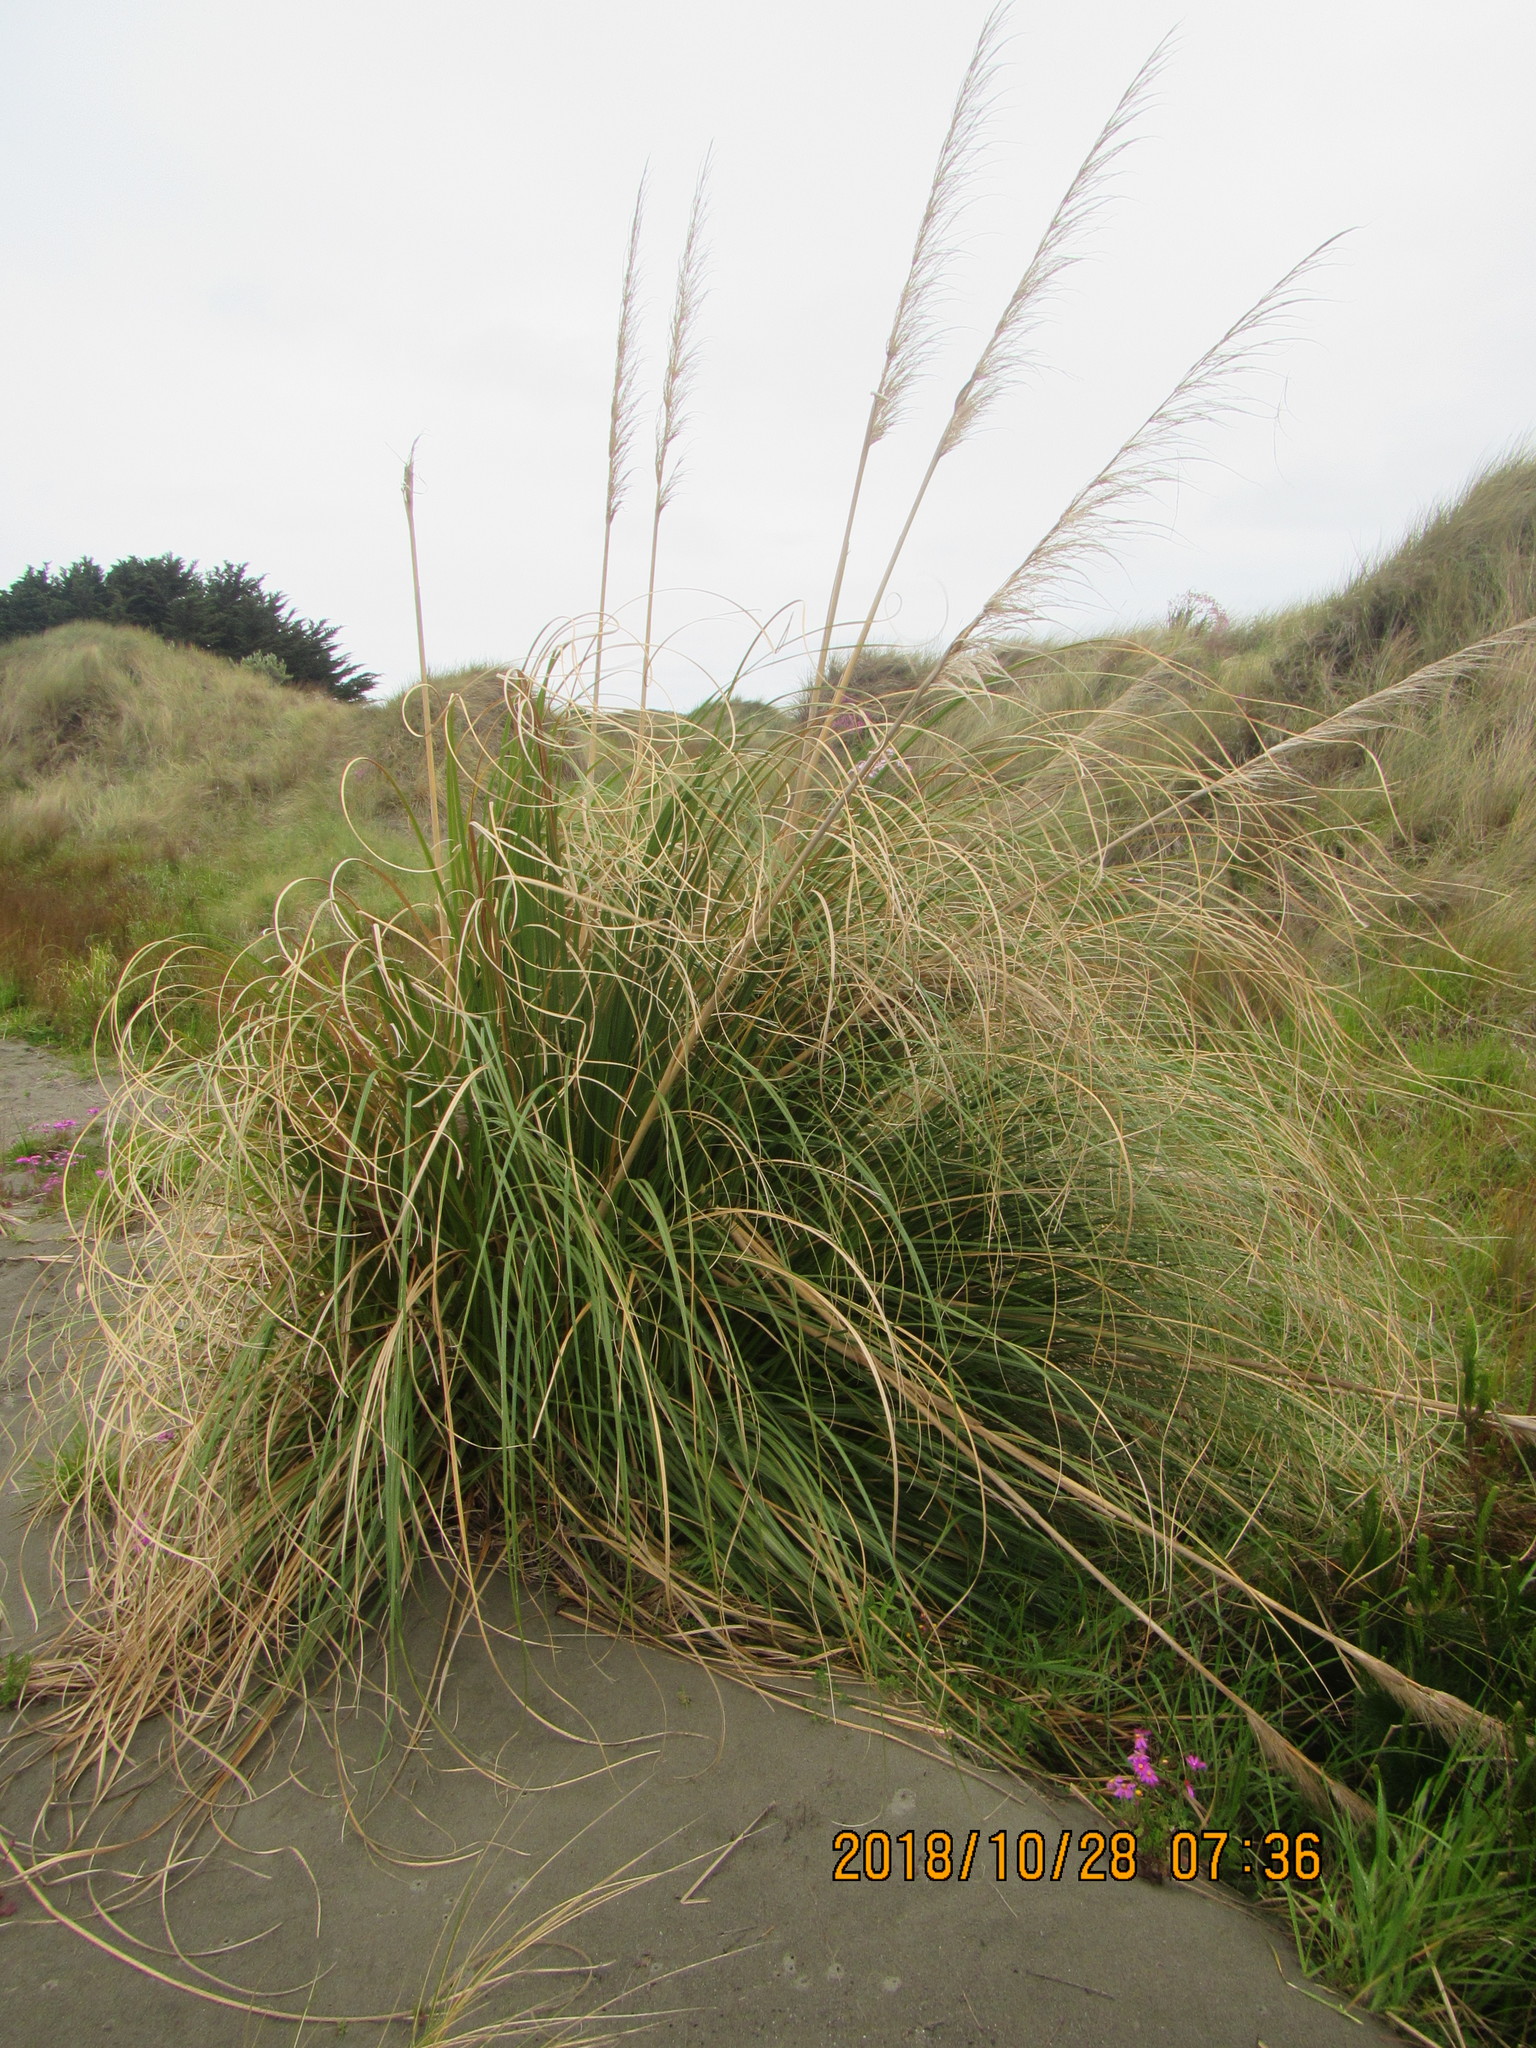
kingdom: Plantae
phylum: Tracheophyta
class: Liliopsida
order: Poales
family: Poaceae
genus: Cortaderia
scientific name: Cortaderia selloana
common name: Uruguayan pampas grass
